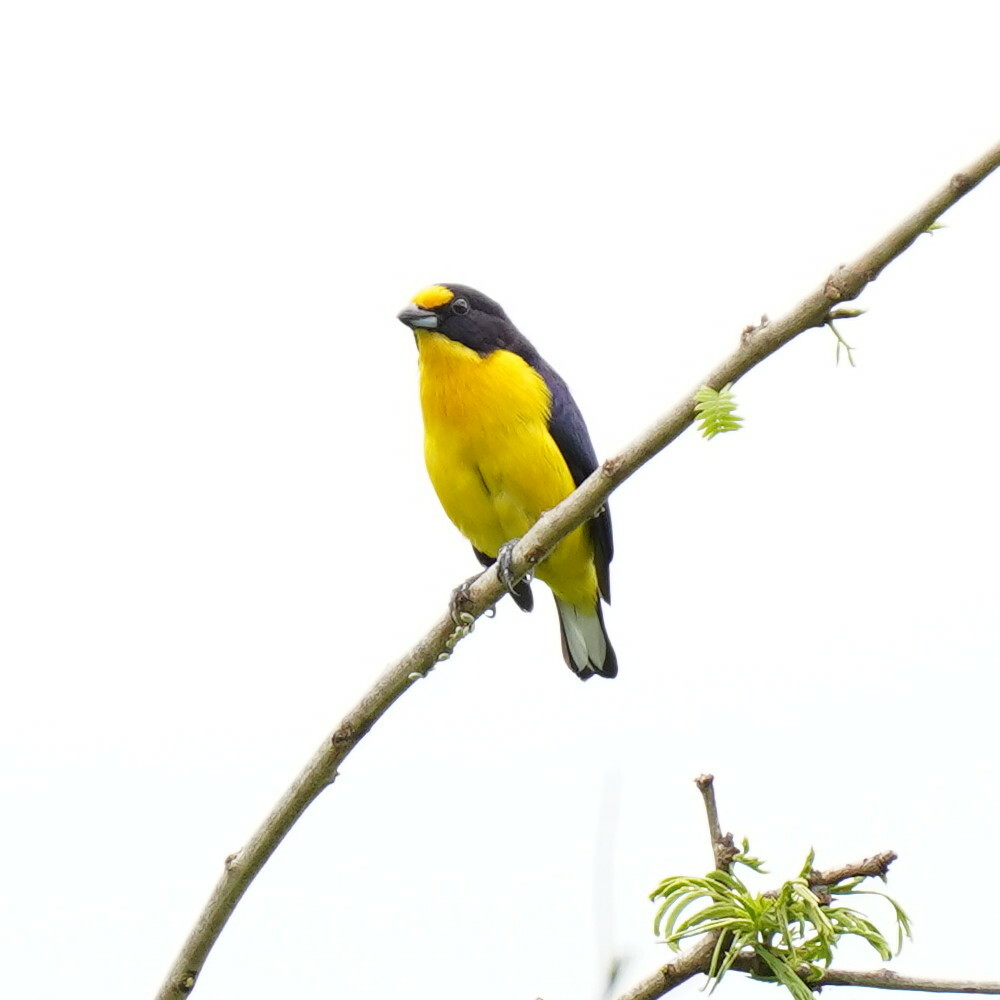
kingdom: Animalia
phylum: Chordata
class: Aves
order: Passeriformes
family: Fringillidae
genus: Euphonia
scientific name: Euphonia violacea
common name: Violaceous euphonia
